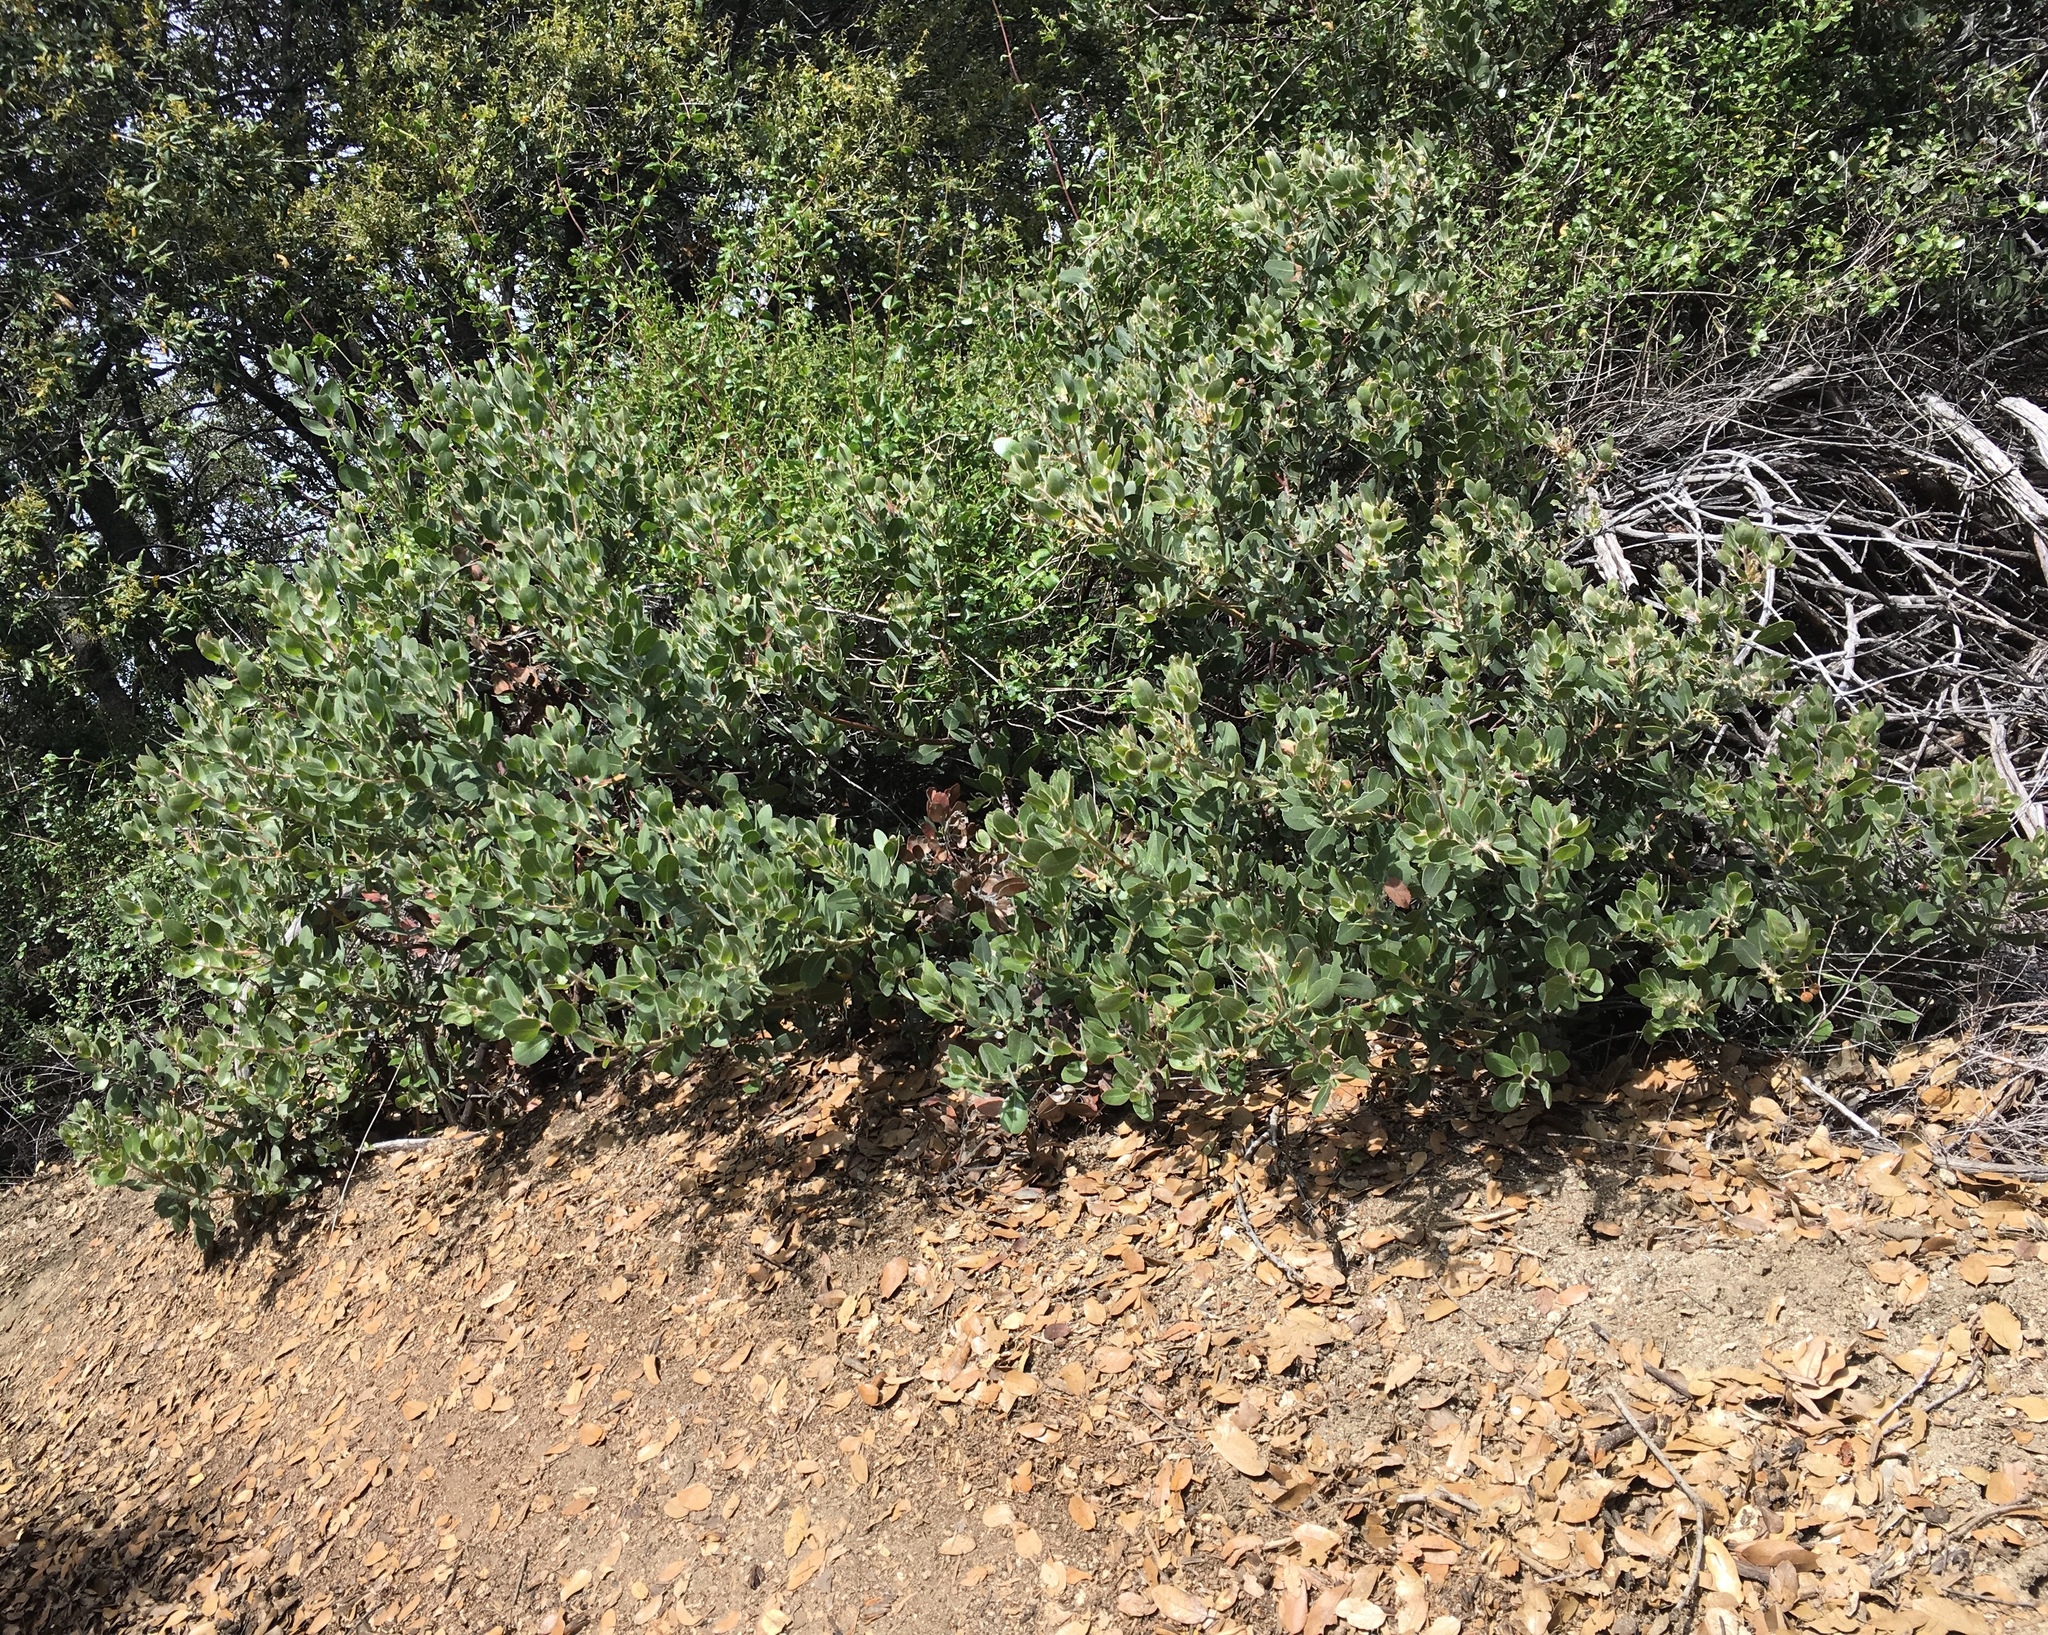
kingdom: Plantae
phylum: Tracheophyta
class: Magnoliopsida
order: Ericales
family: Ericaceae
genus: Arctostaphylos
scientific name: Arctostaphylos glandulosa
